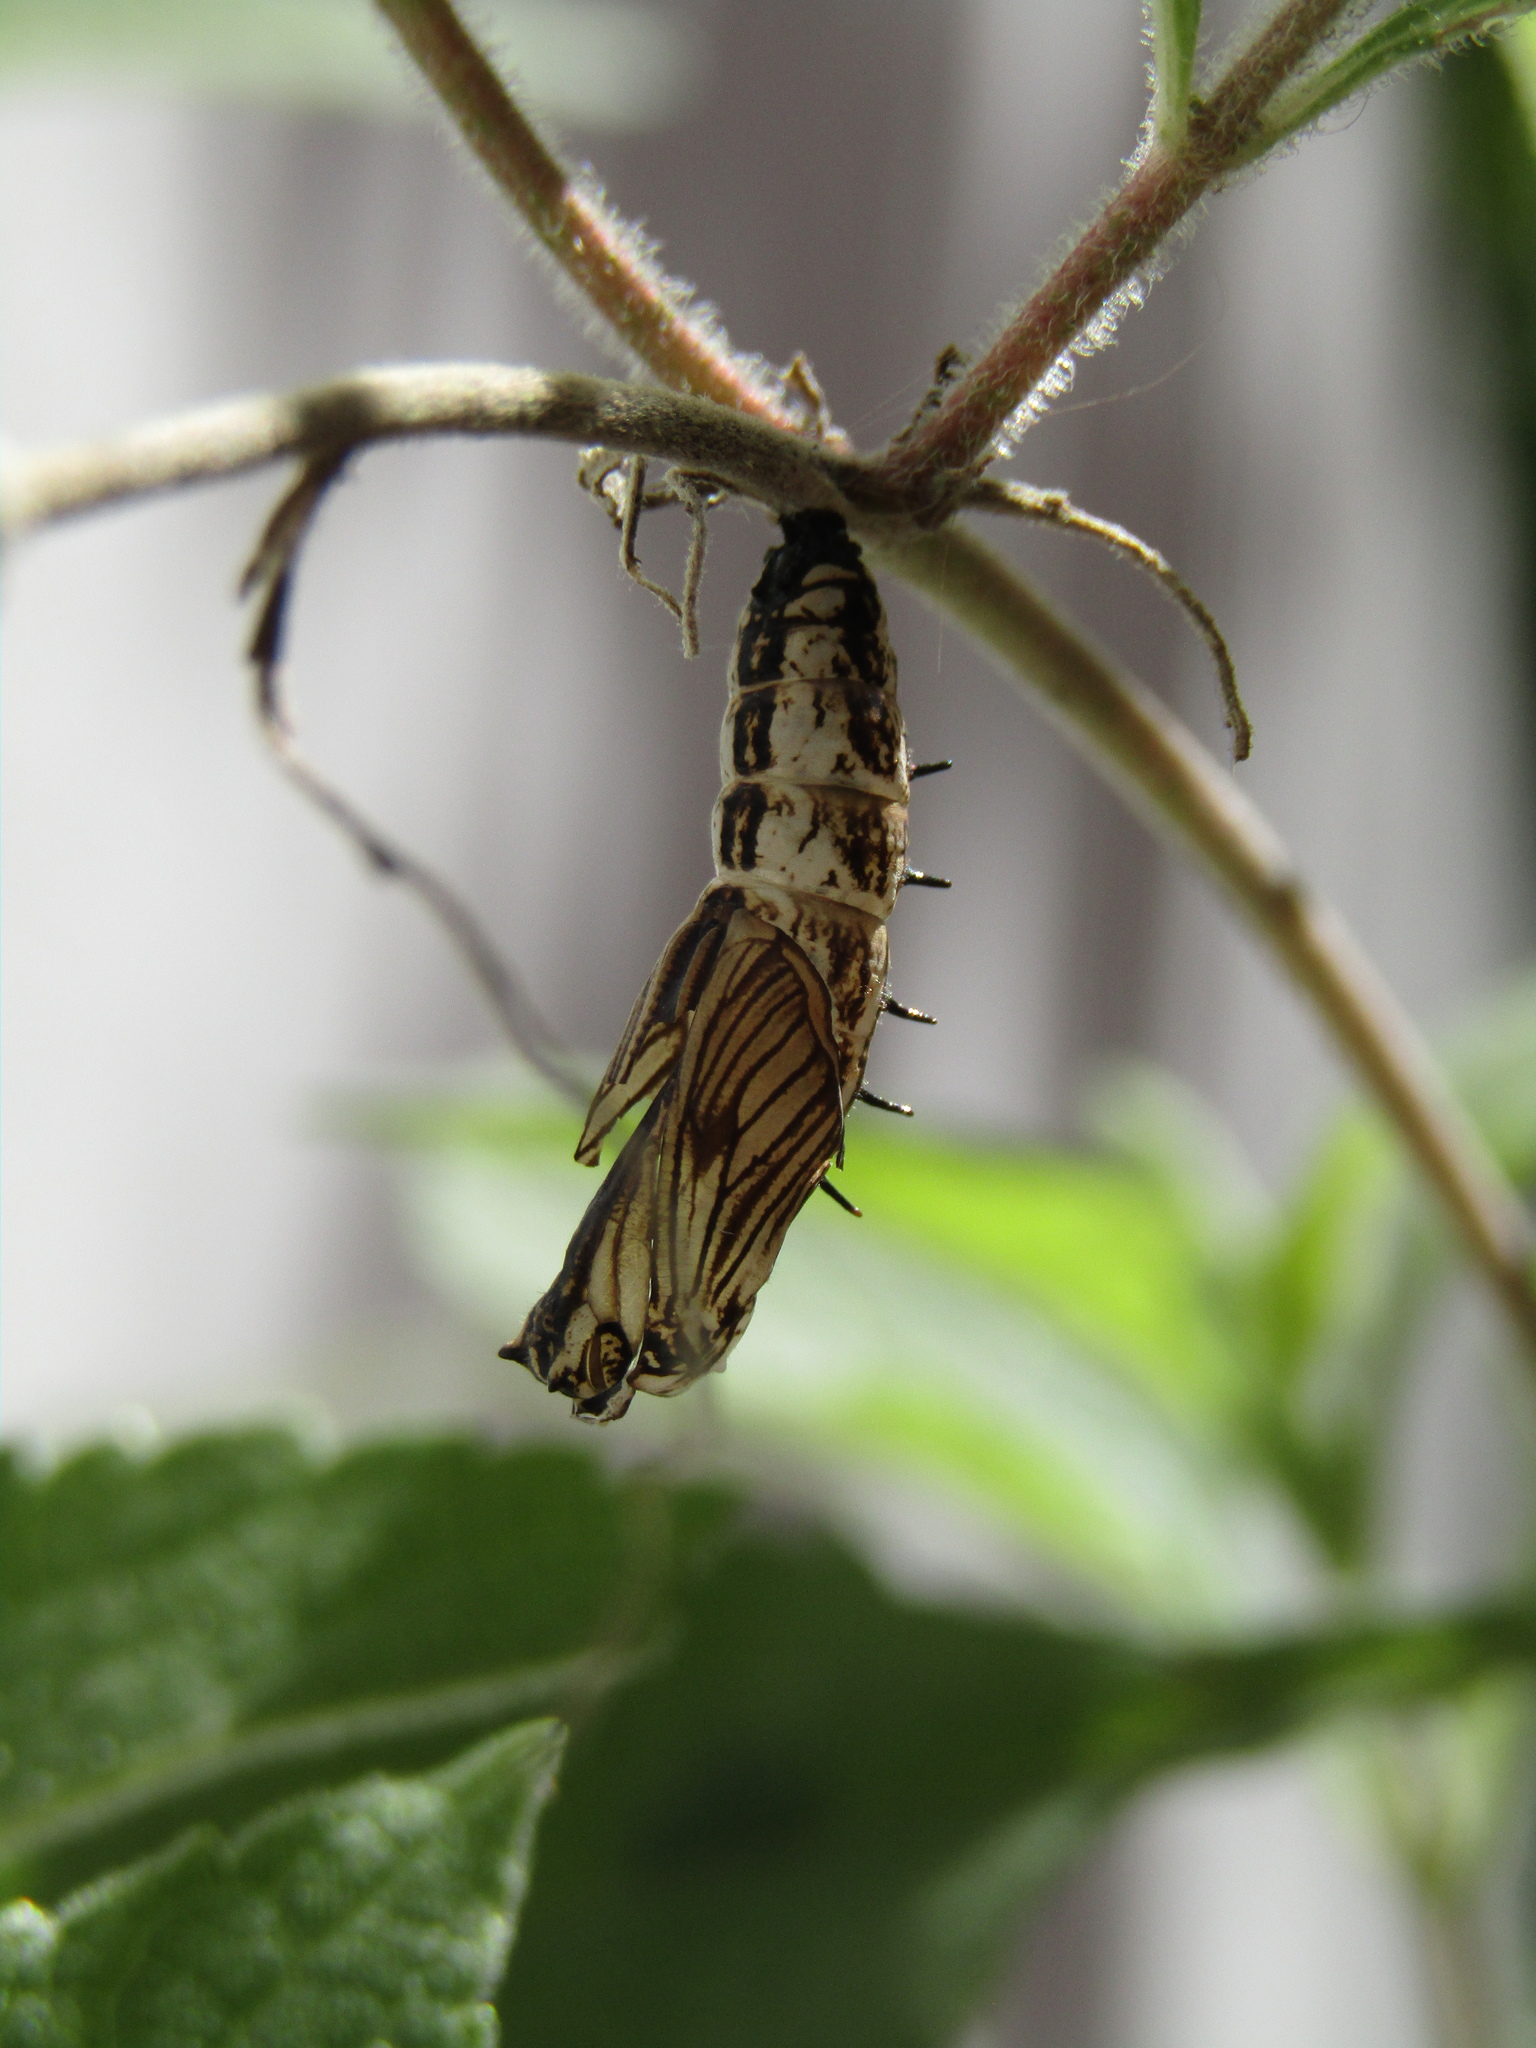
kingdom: Animalia
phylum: Arthropoda
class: Insecta
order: Lepidoptera
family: Nymphalidae
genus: Actinote
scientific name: Actinote pellenea
